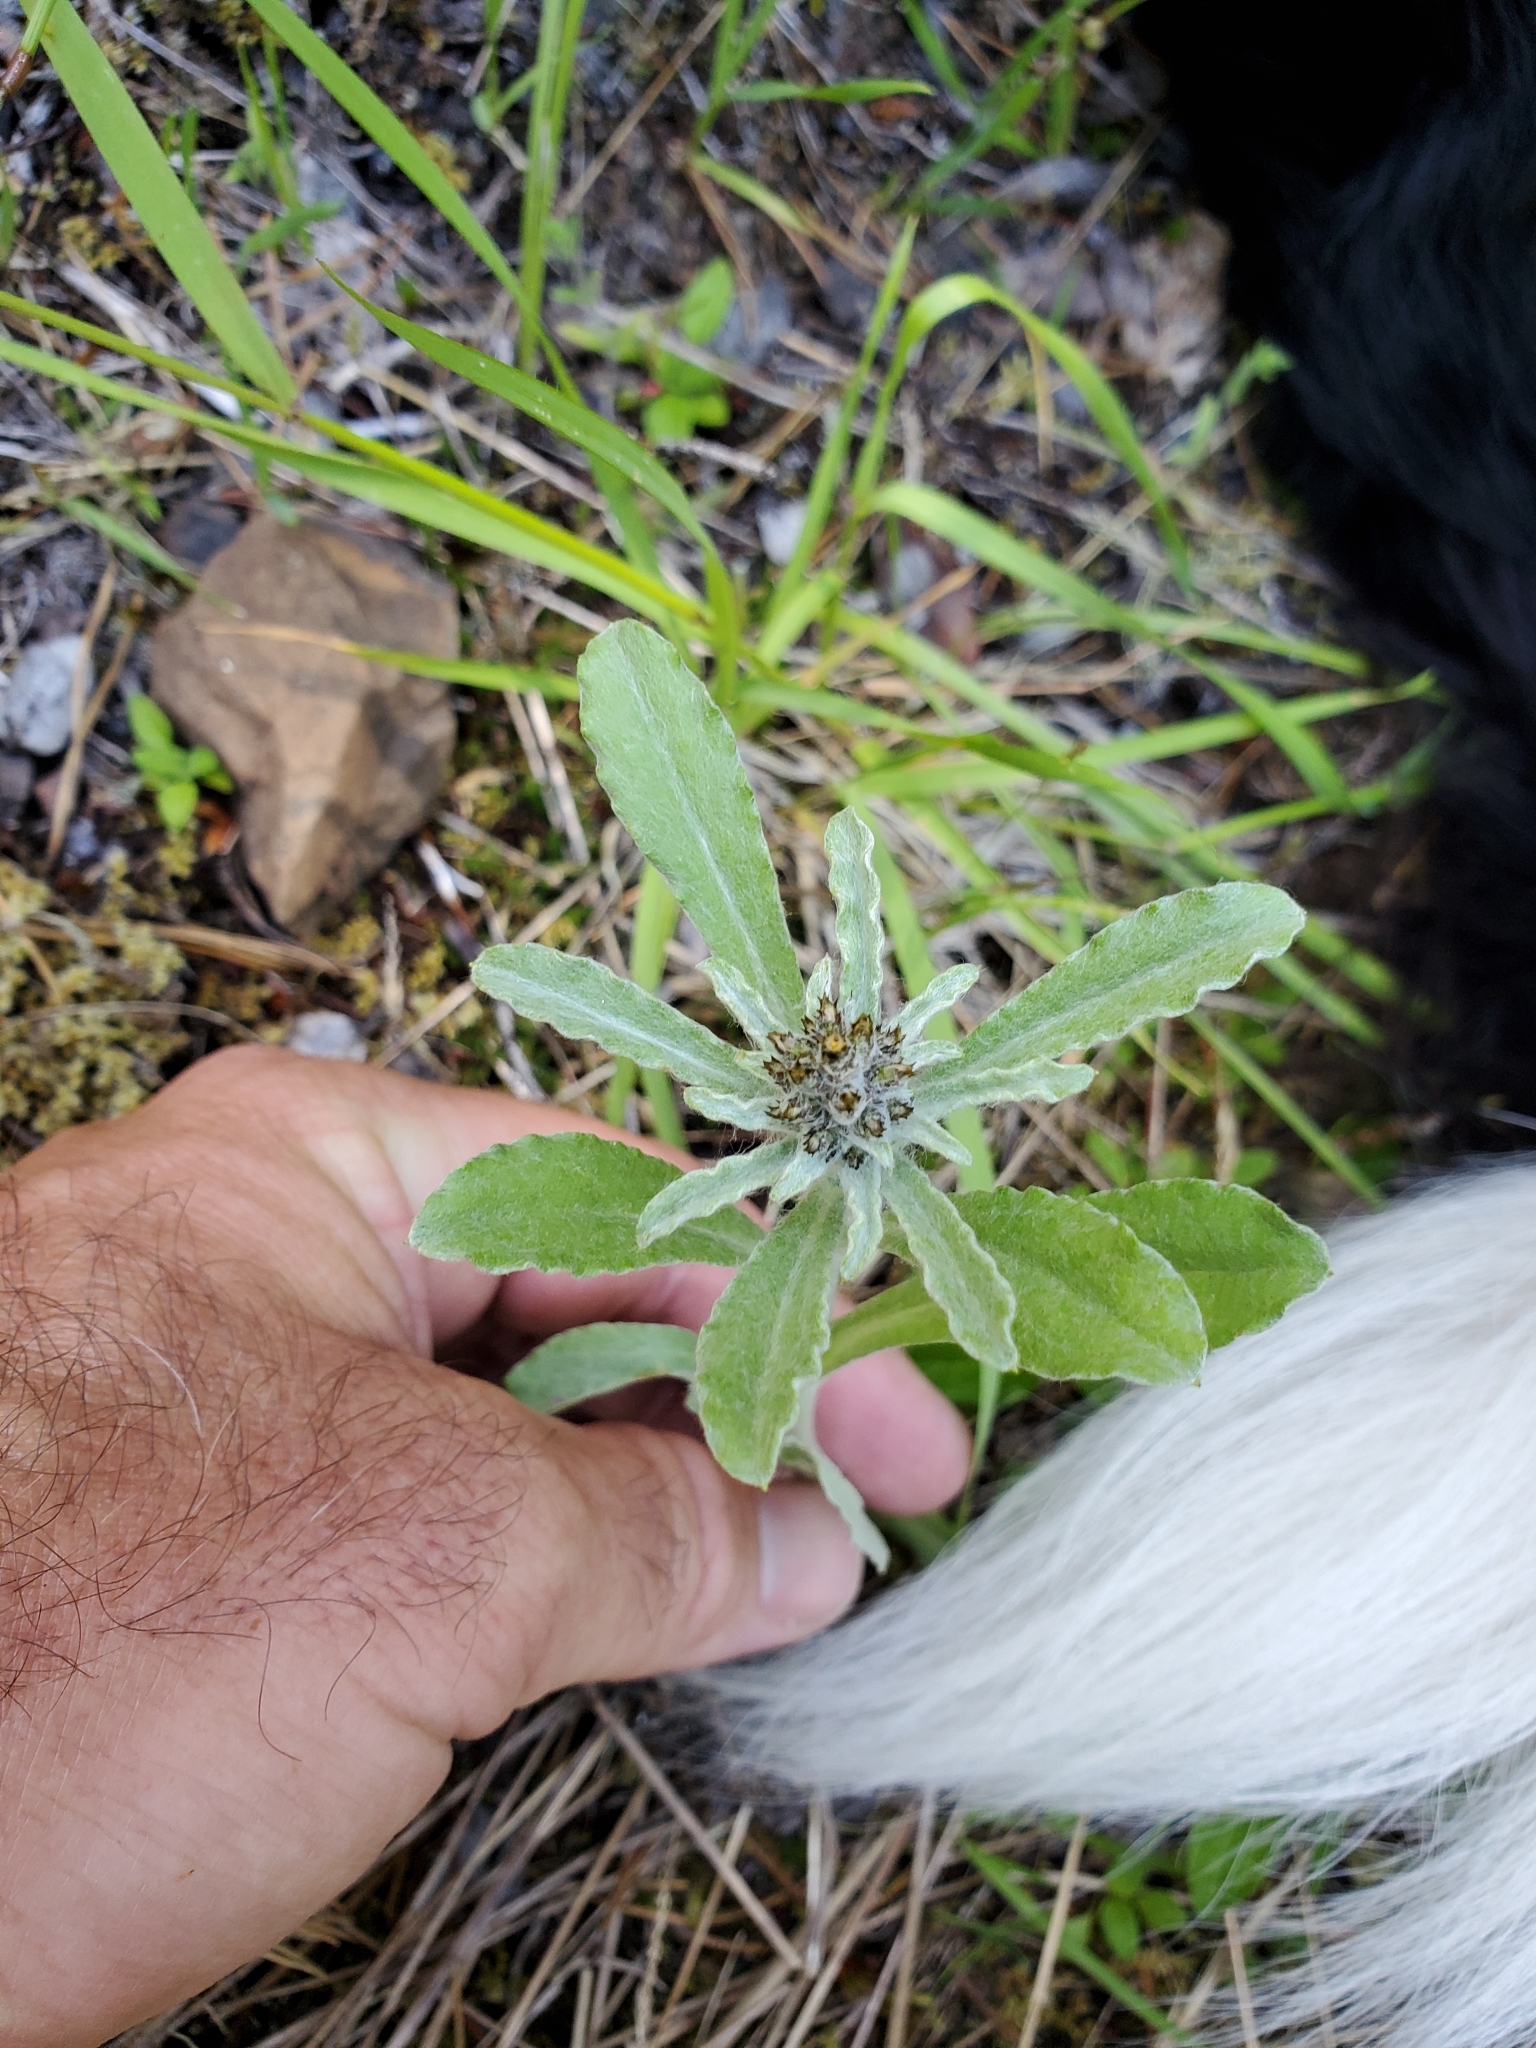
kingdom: Plantae
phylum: Tracheophyta
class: Magnoliopsida
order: Asterales
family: Asteraceae
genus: Gamochaeta
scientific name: Gamochaeta ustulata
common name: Pacific cudweed
